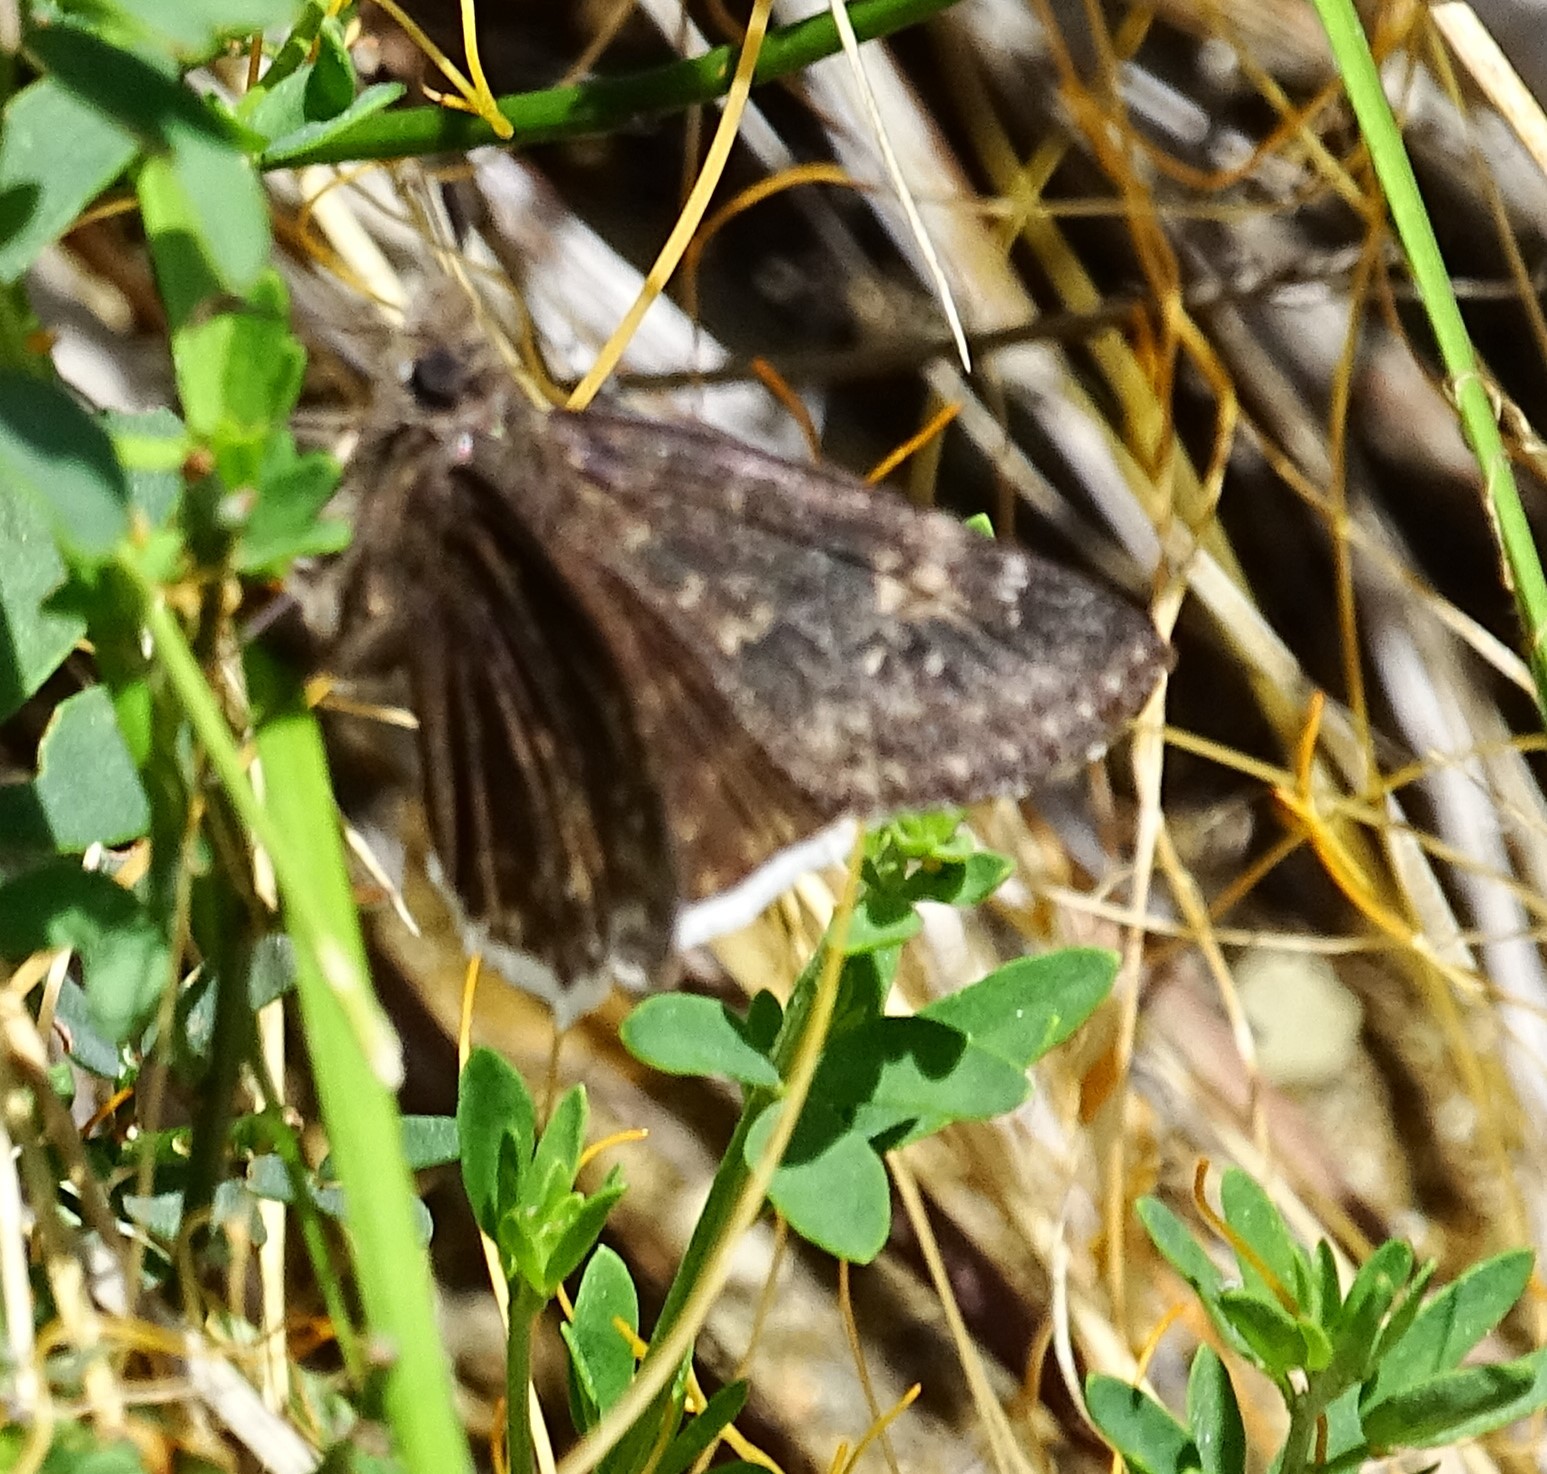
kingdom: Animalia
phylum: Arthropoda
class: Insecta
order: Lepidoptera
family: Hesperiidae
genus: Erynnis
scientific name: Erynnis funeralis
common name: Funereal duskywing
